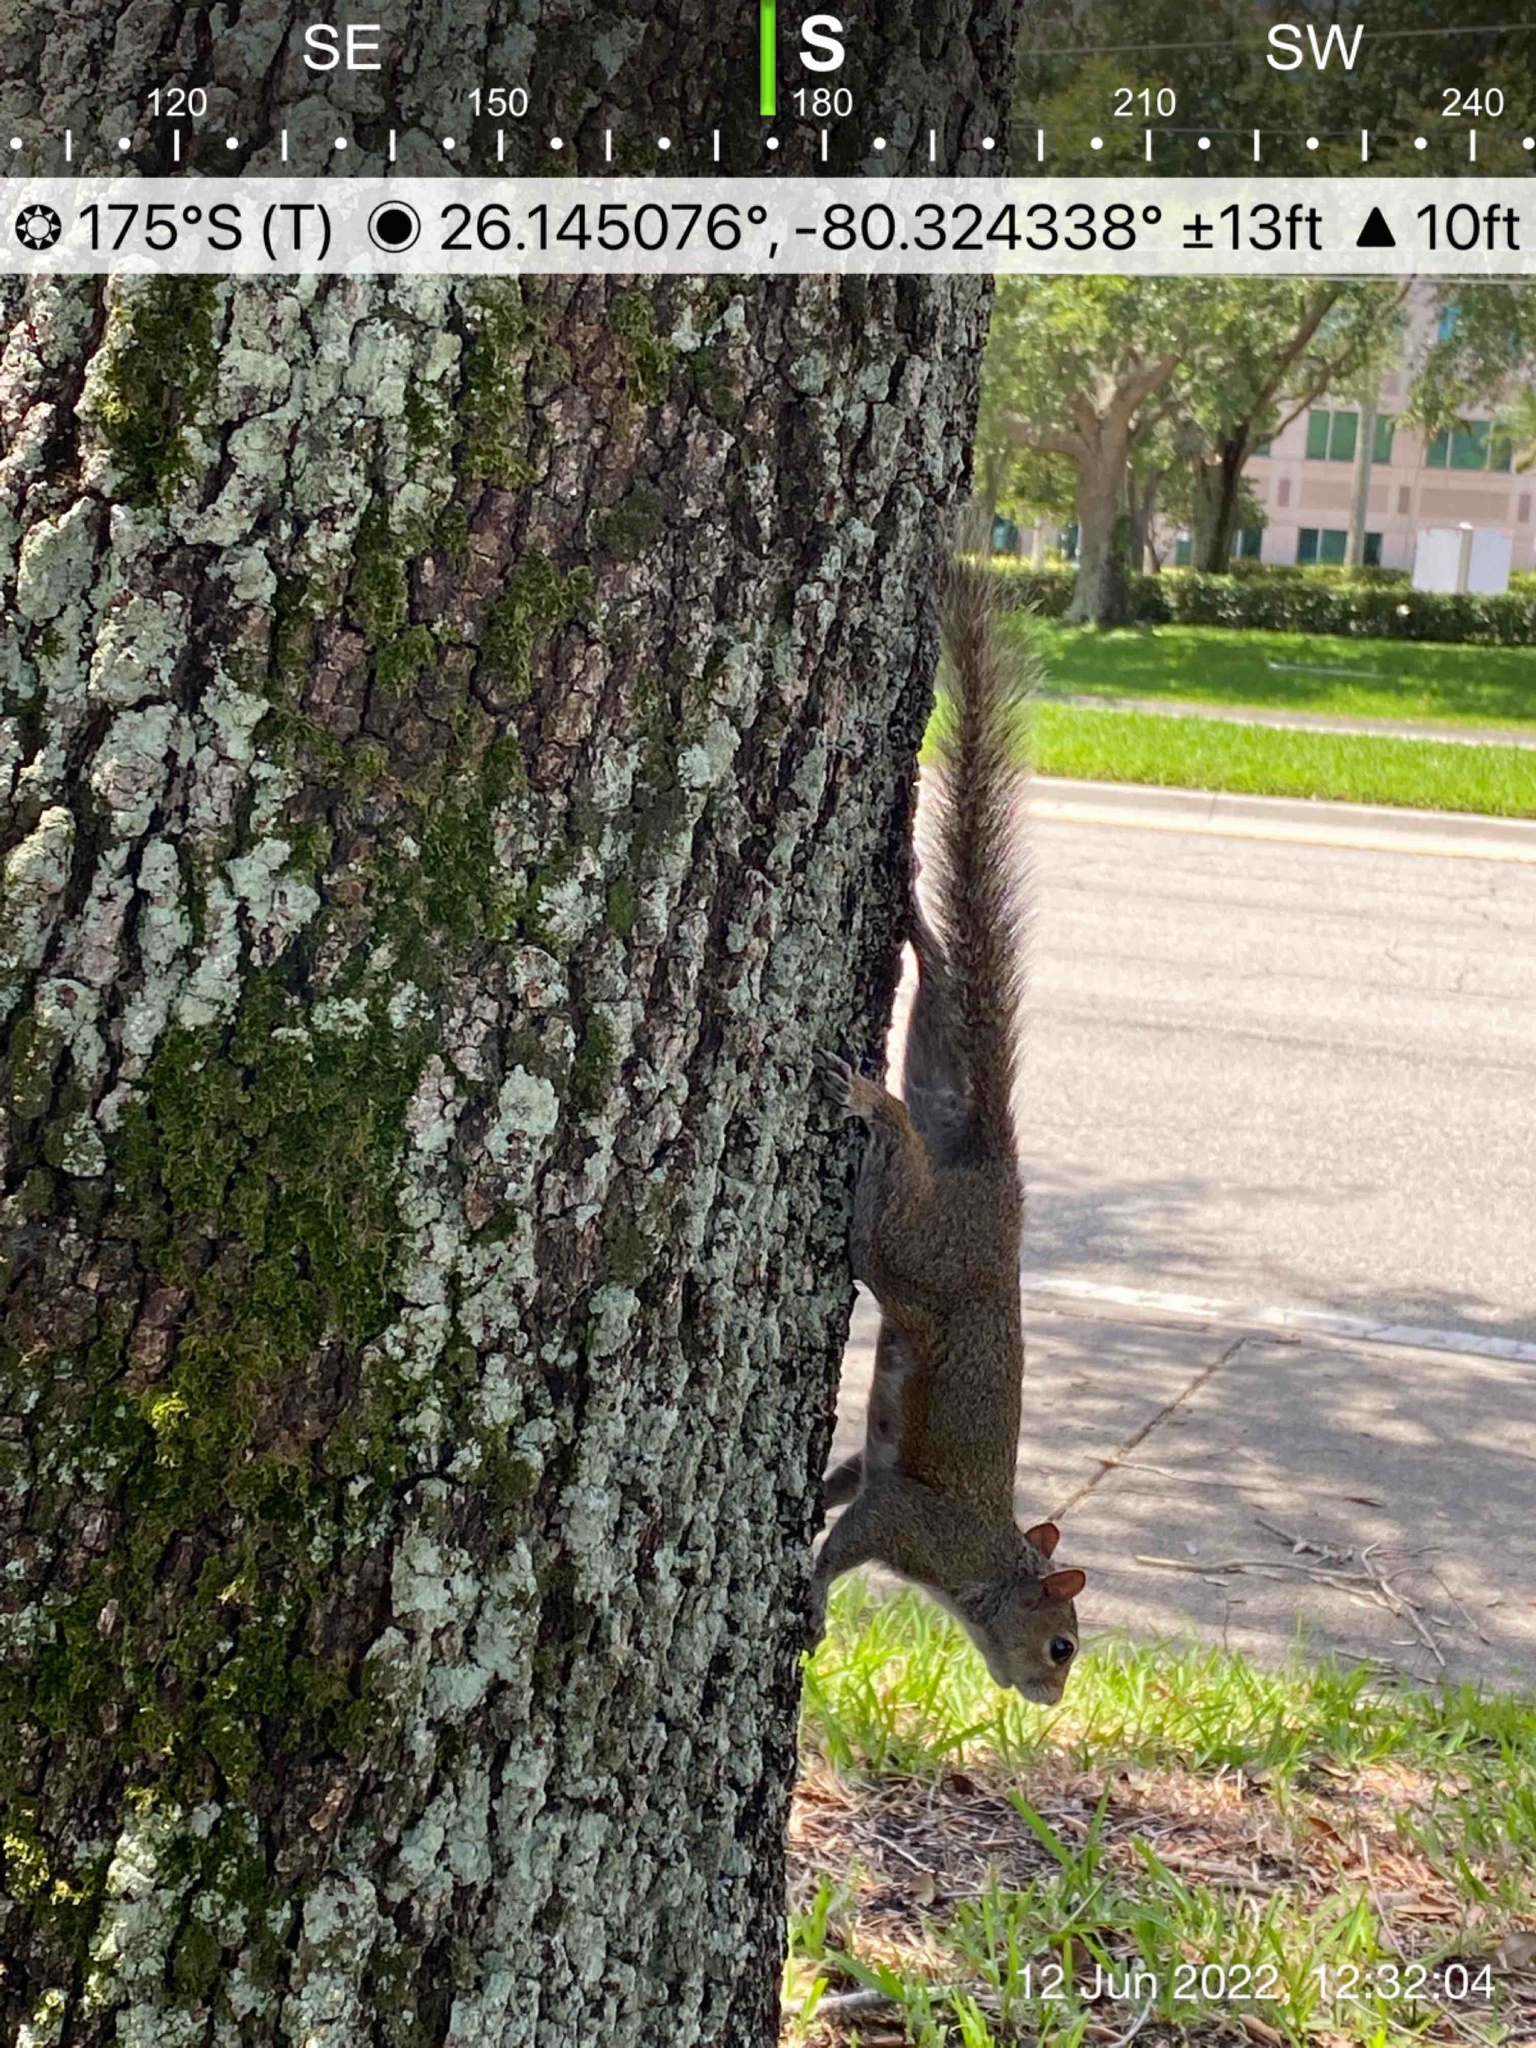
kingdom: Animalia
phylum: Chordata
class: Mammalia
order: Rodentia
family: Sciuridae
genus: Sciurus
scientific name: Sciurus carolinensis
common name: Eastern gray squirrel
